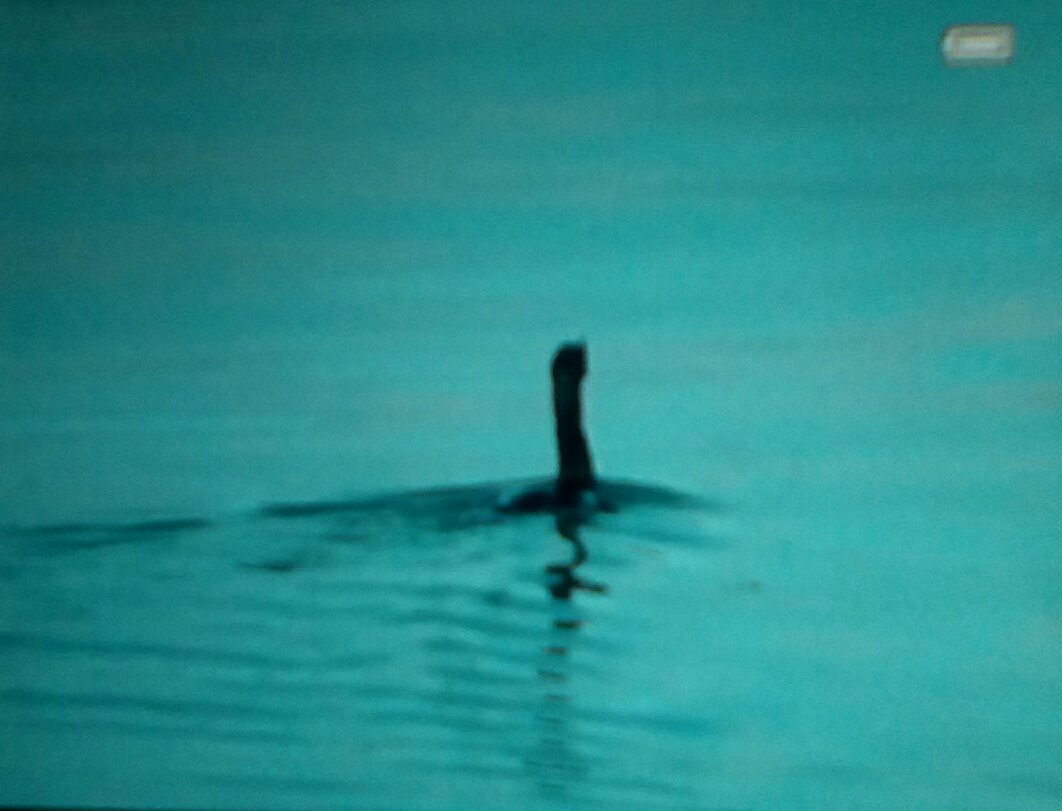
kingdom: Animalia
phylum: Chordata
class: Aves
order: Suliformes
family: Phalacrocoracidae
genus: Phalacrocorax
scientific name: Phalacrocorax auritus
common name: Double-crested cormorant
